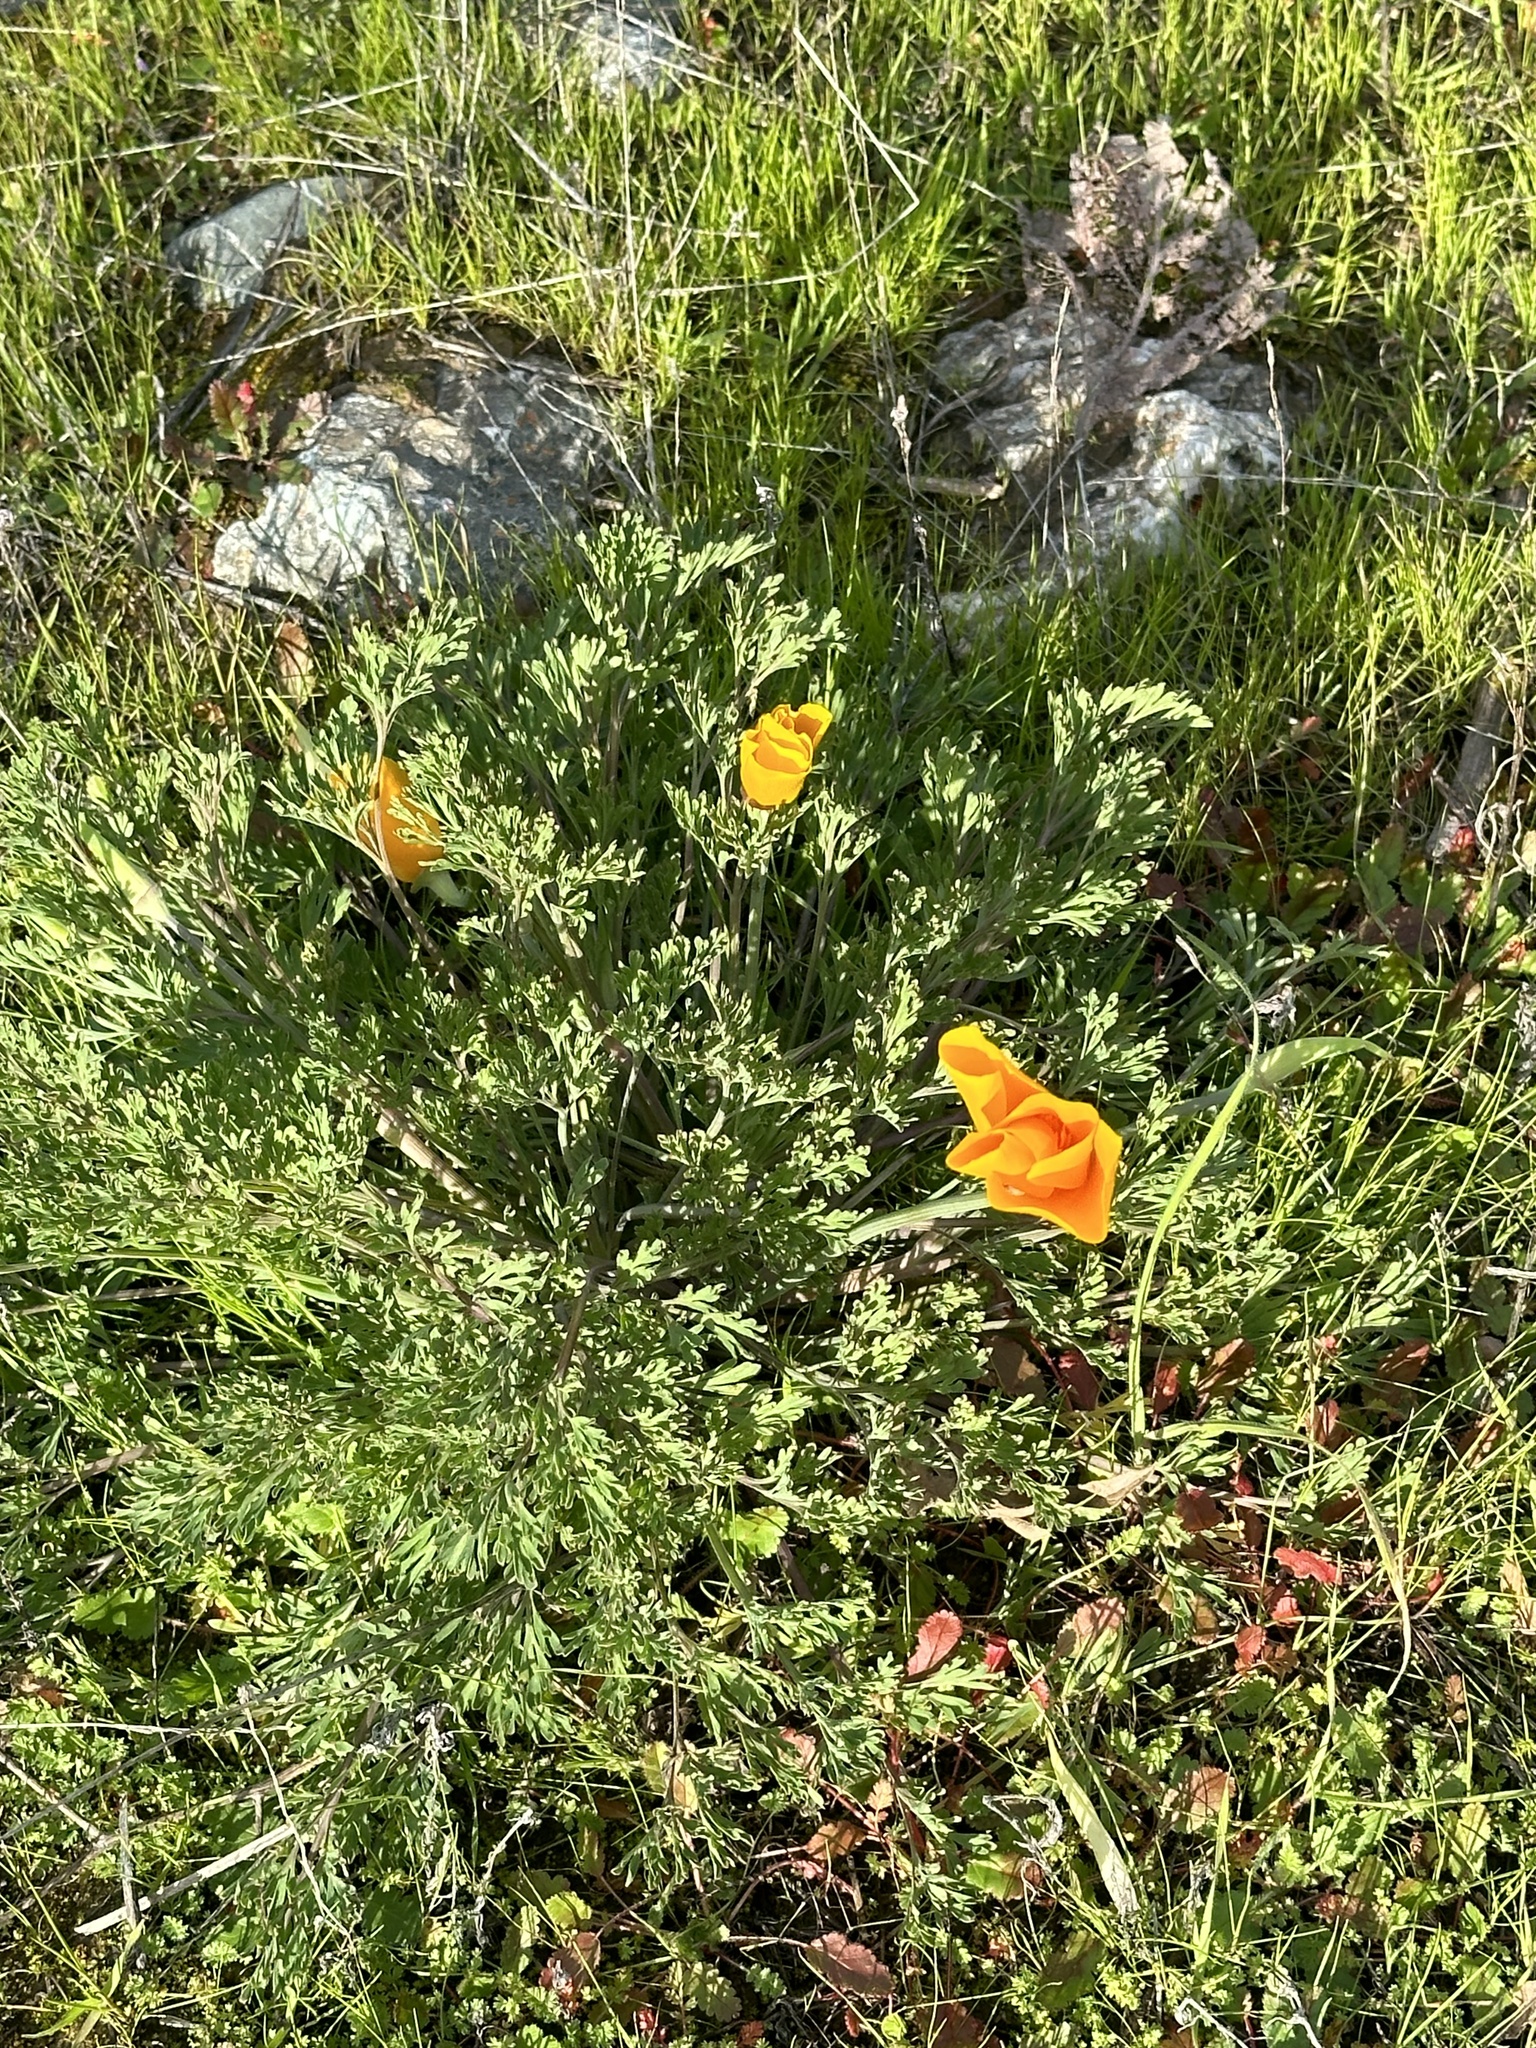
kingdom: Plantae
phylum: Tracheophyta
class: Magnoliopsida
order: Ranunculales
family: Papaveraceae
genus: Eschscholzia
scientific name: Eschscholzia californica
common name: California poppy
